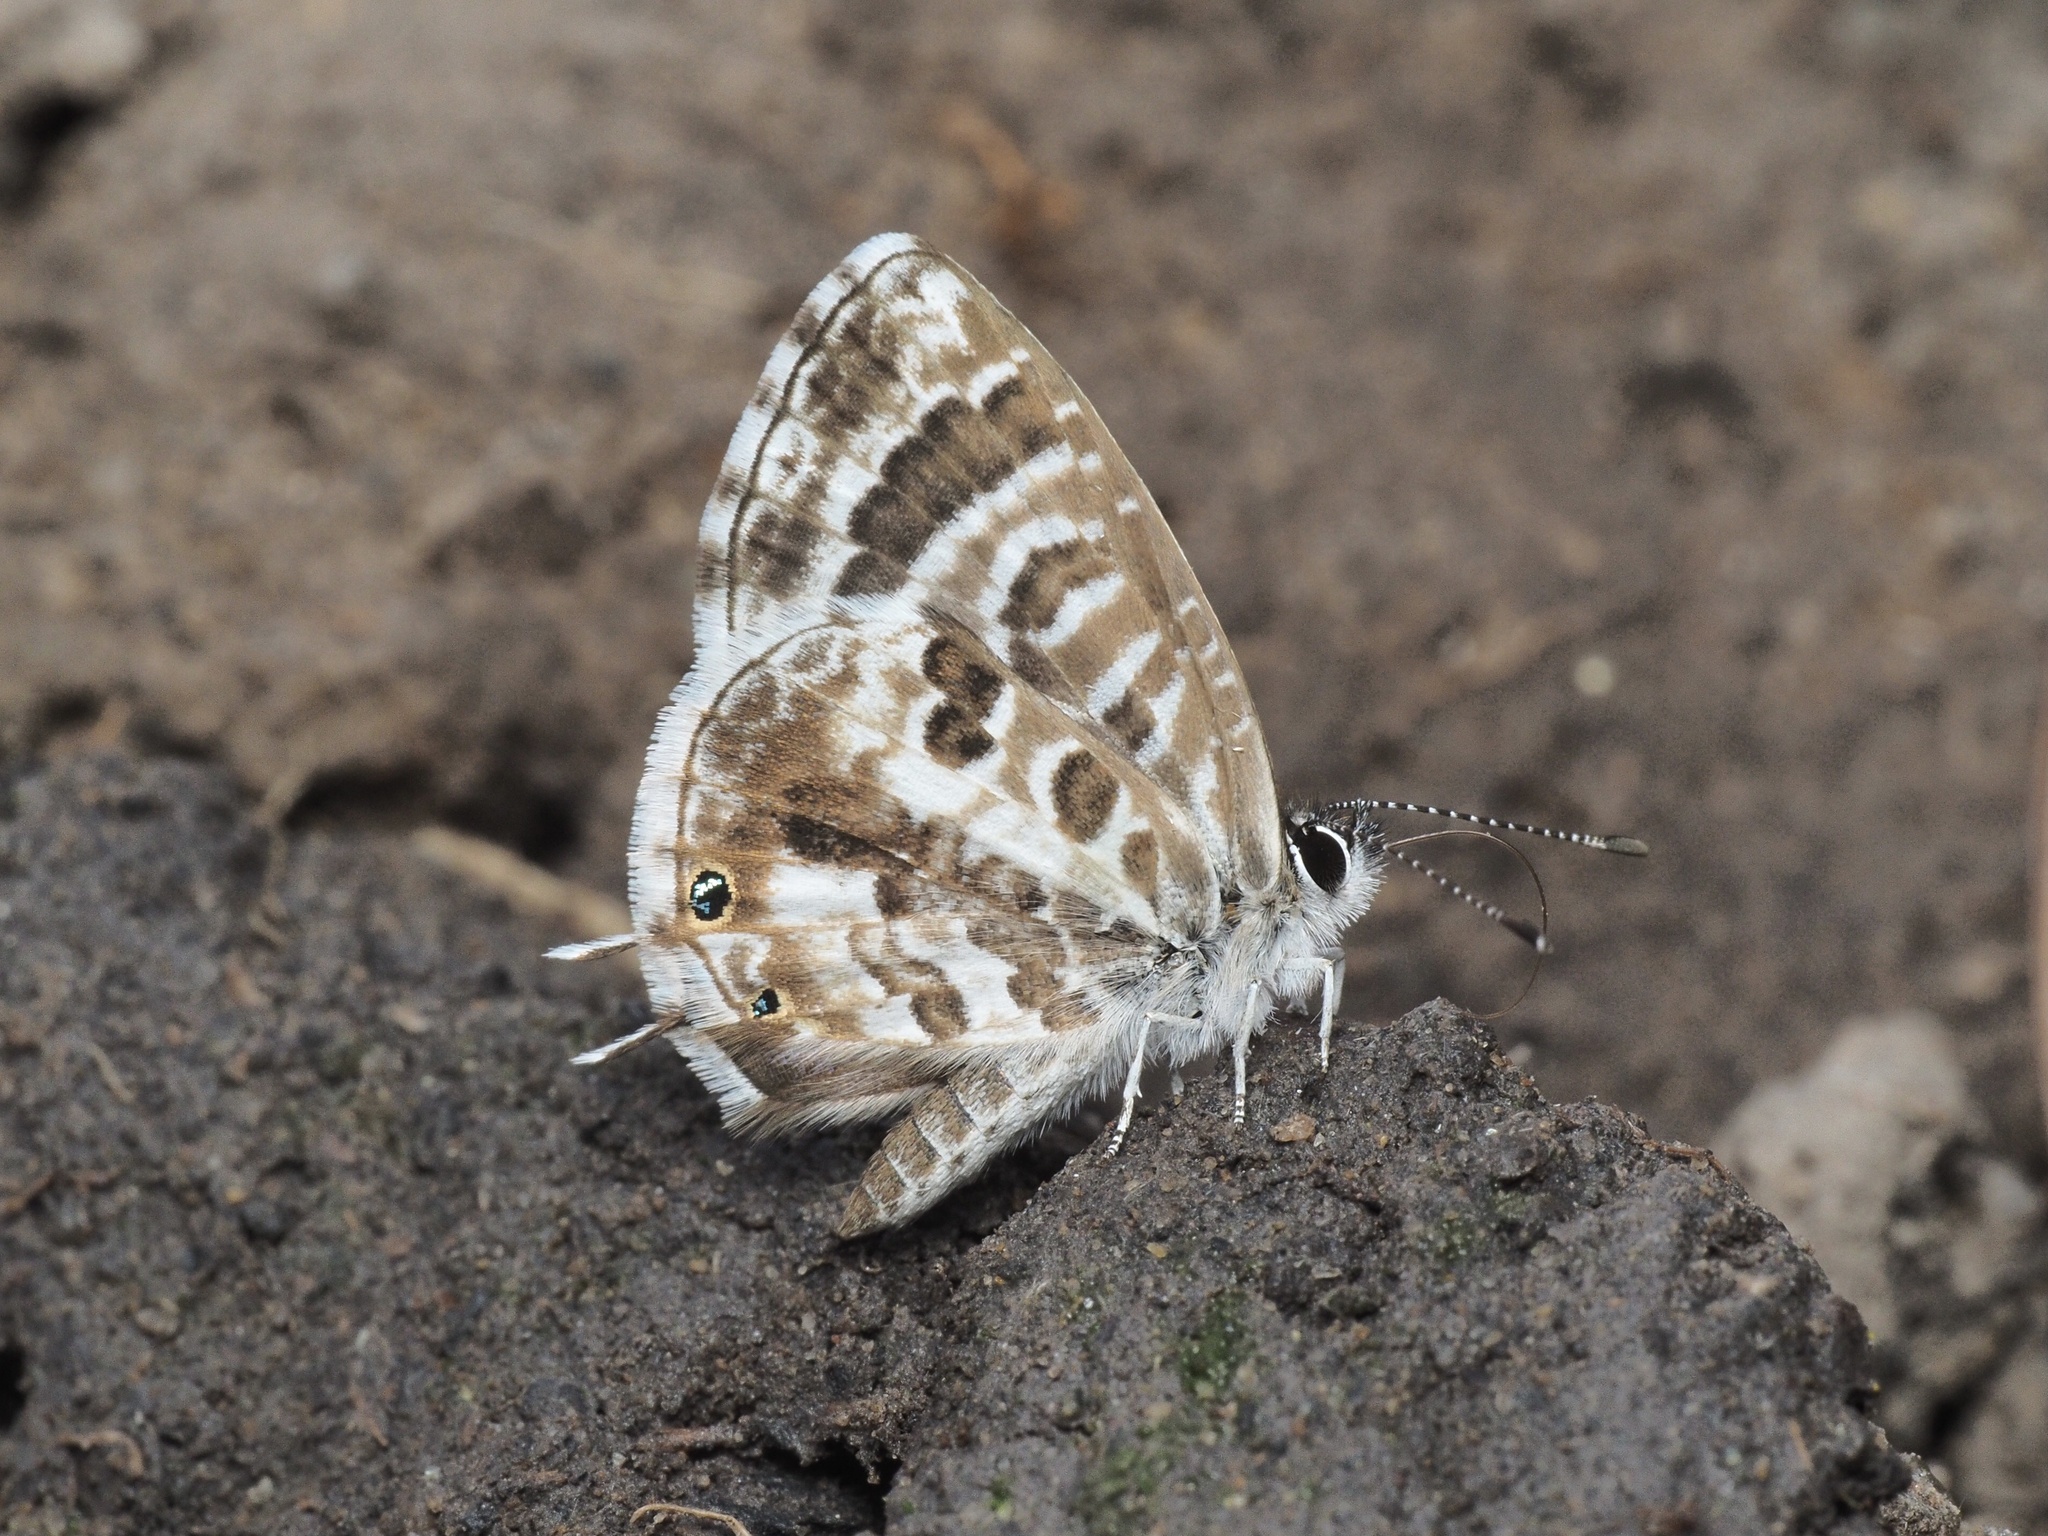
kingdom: Animalia
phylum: Arthropoda
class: Insecta
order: Lepidoptera
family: Lycaenidae
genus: Cacyreus
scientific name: Cacyreus virilis
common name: Alternative bush blue
